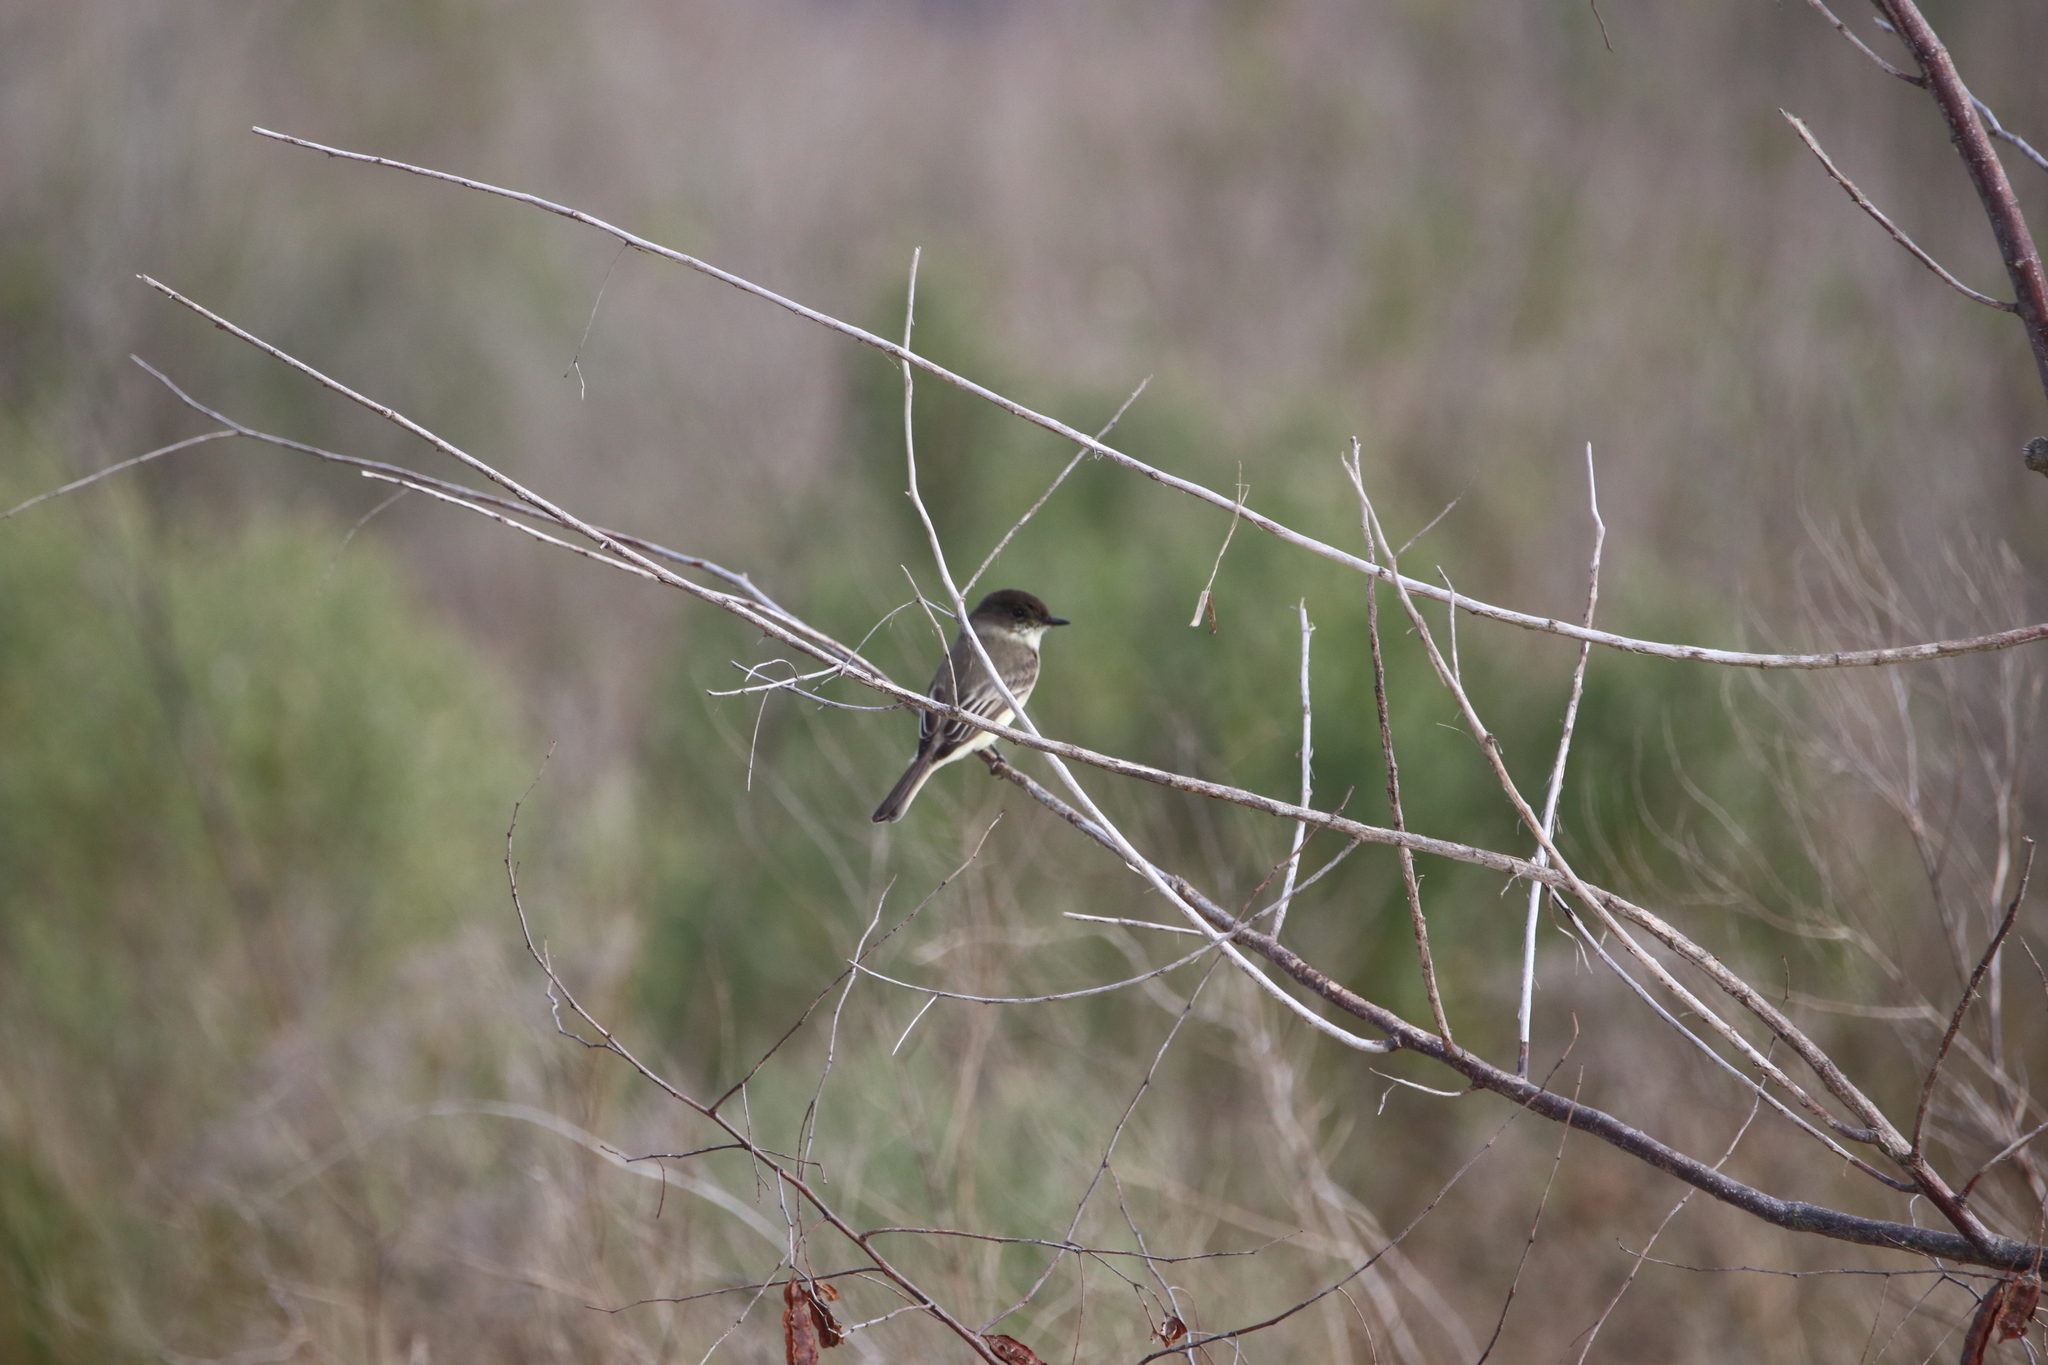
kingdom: Animalia
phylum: Chordata
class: Aves
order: Passeriformes
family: Tyrannidae
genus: Sayornis
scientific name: Sayornis phoebe
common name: Eastern phoebe
